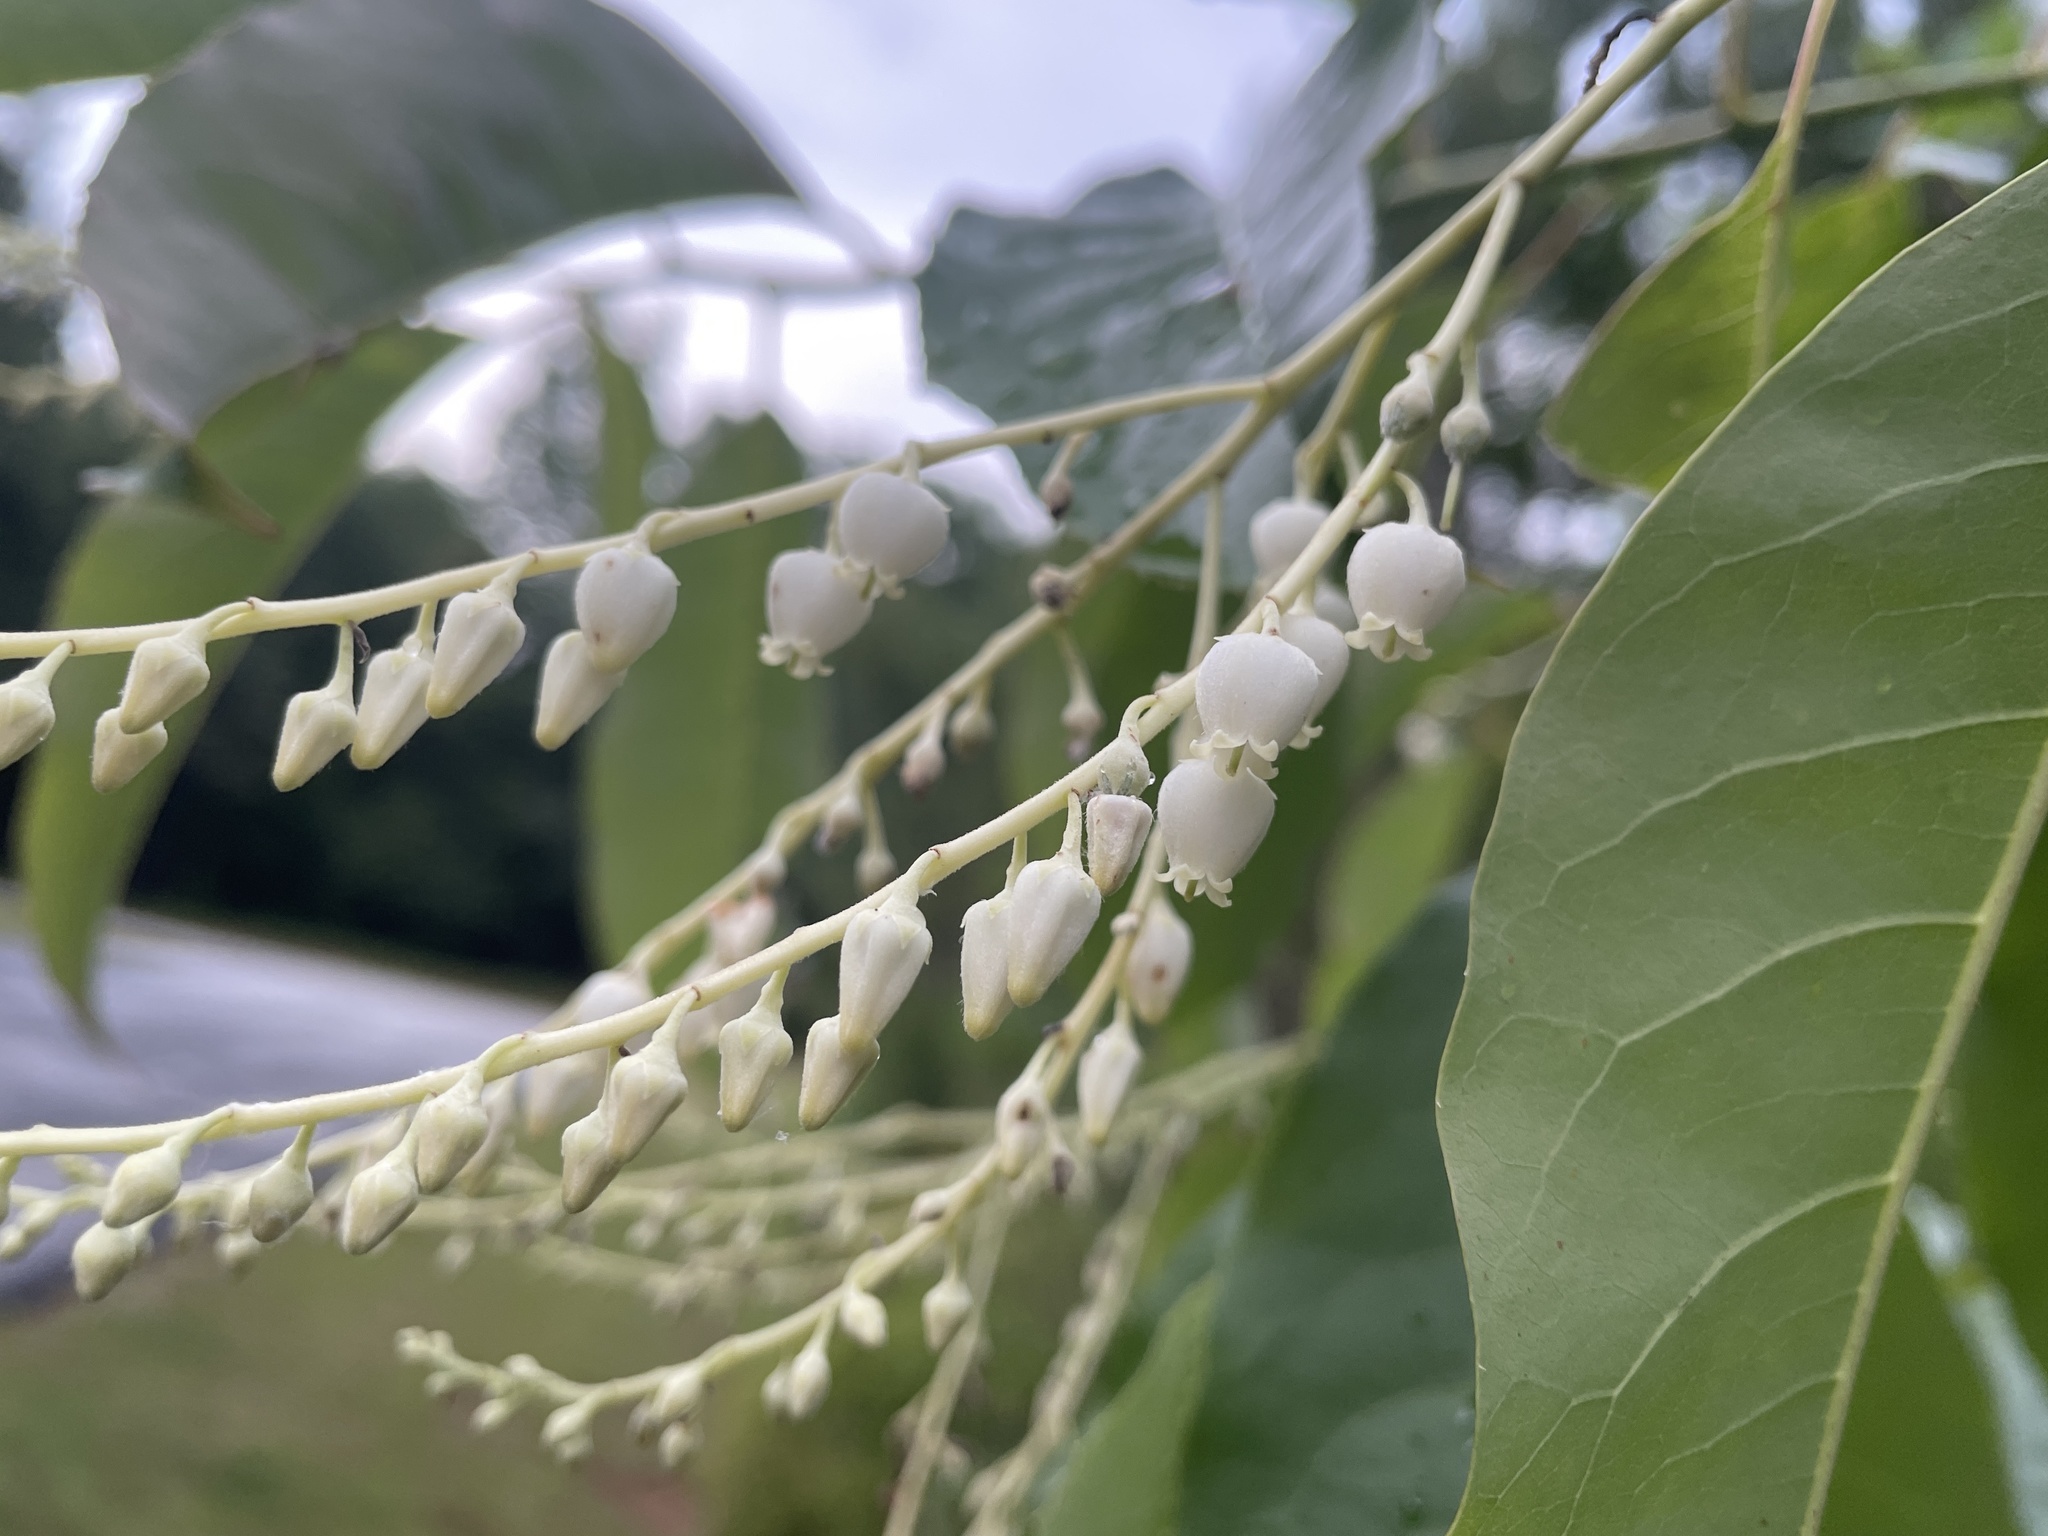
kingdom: Plantae
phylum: Tracheophyta
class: Magnoliopsida
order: Ericales
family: Ericaceae
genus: Oxydendrum
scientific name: Oxydendrum arboreum
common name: Sourwood
